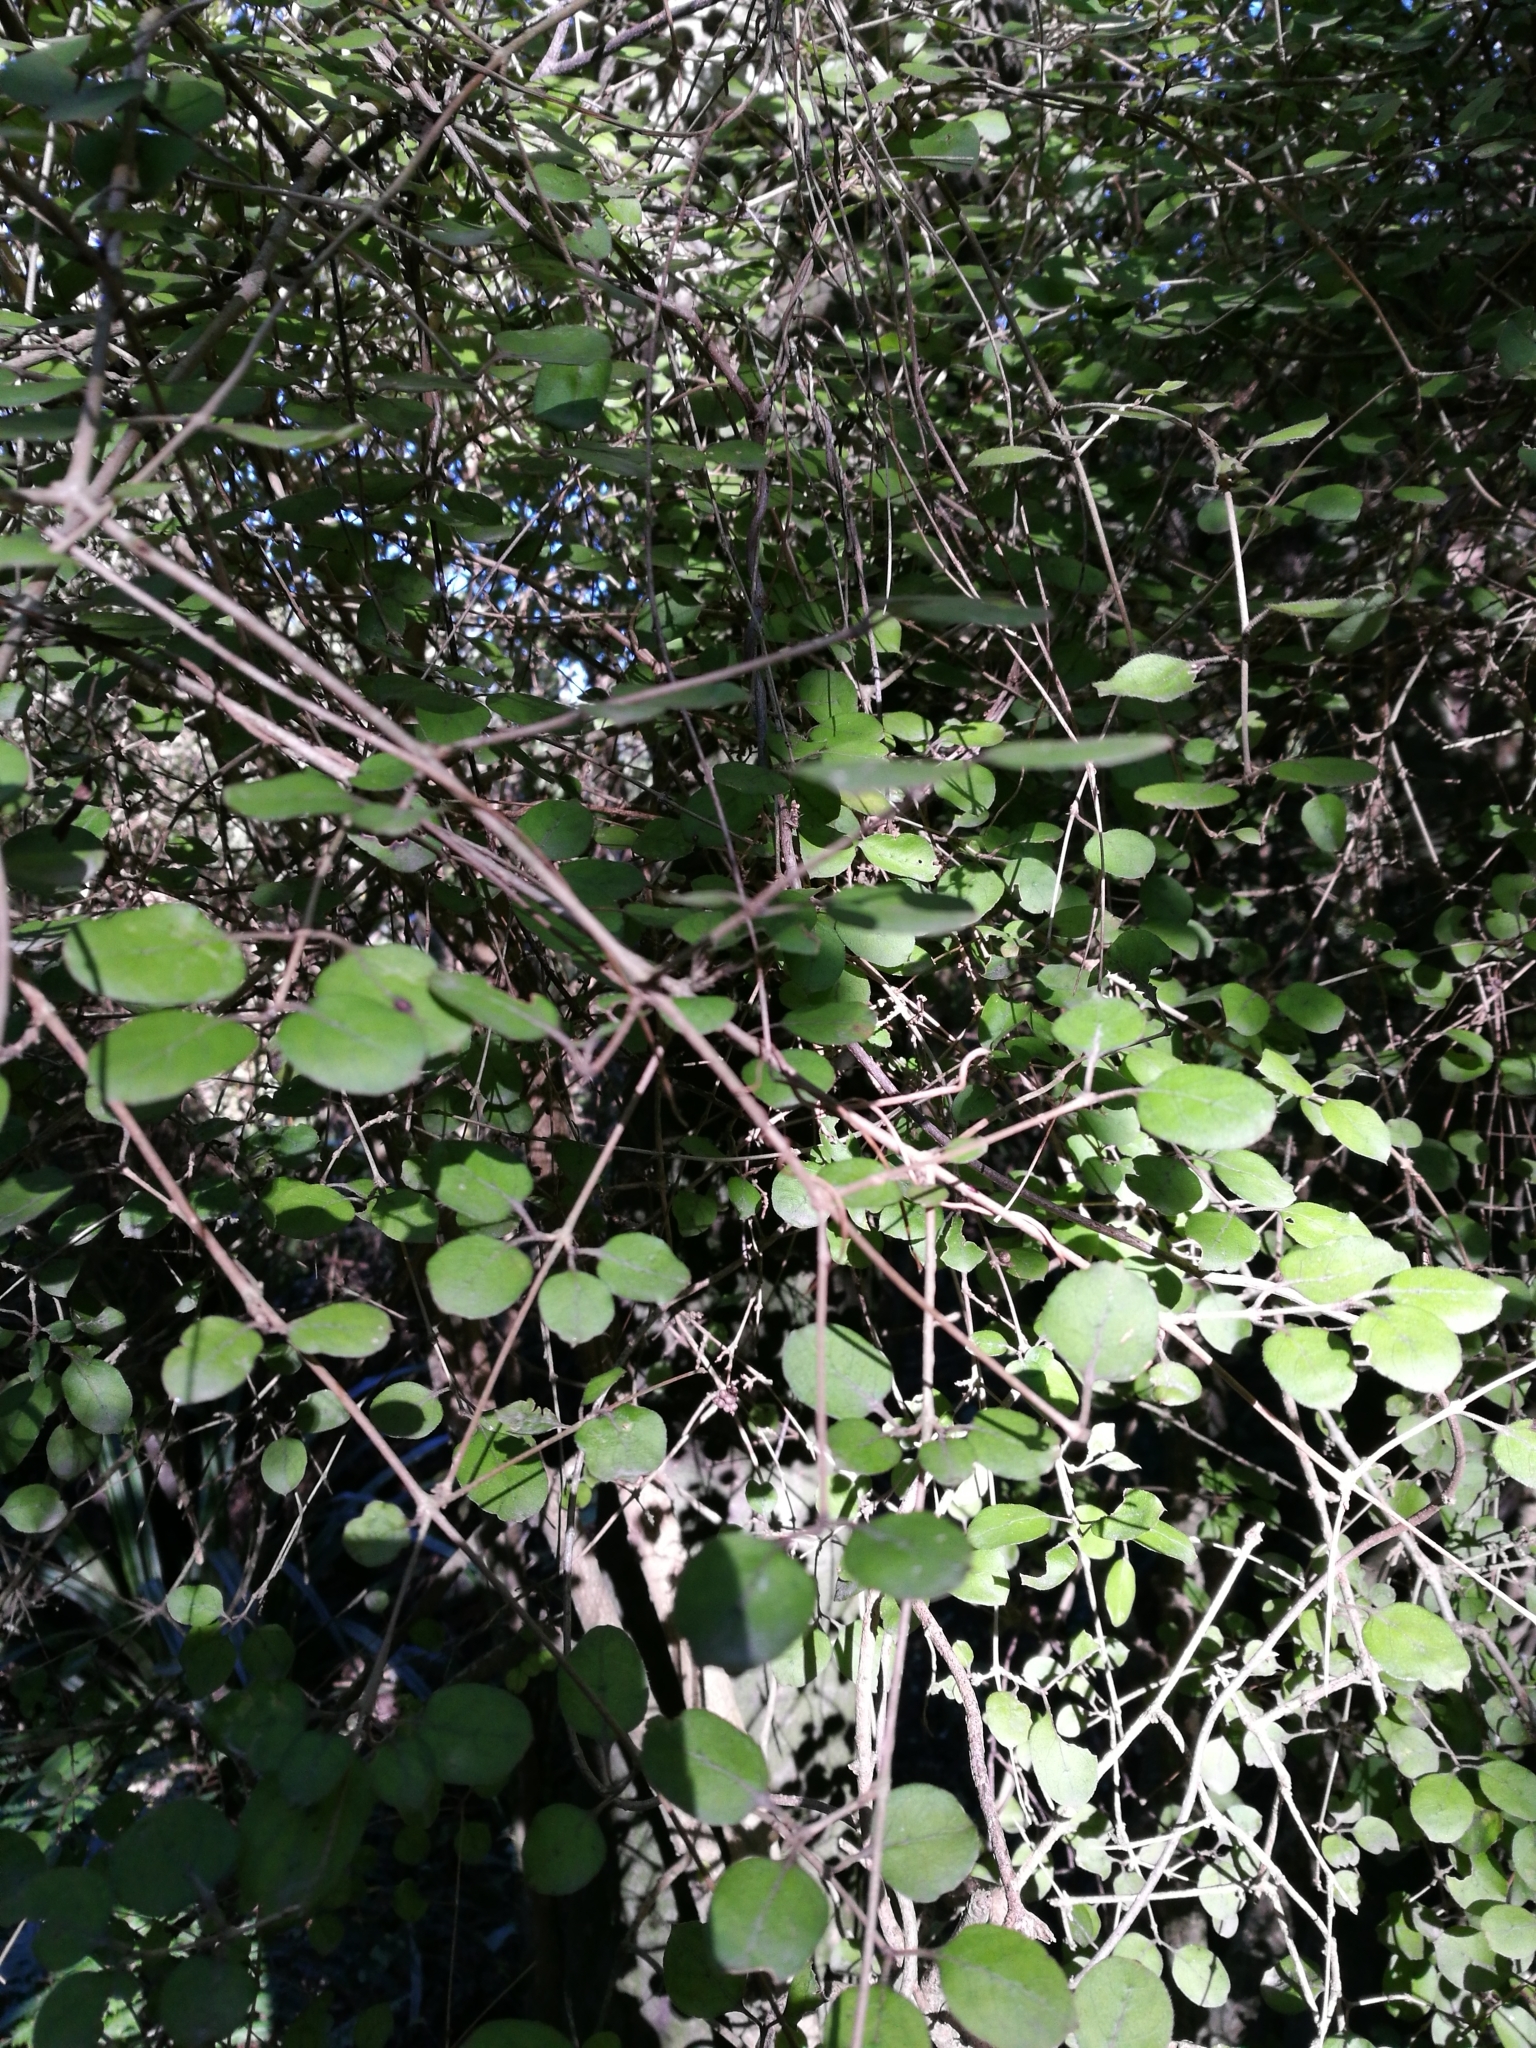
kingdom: Plantae
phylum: Tracheophyta
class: Magnoliopsida
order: Gentianales
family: Rubiaceae
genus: Coprosma
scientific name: Coprosma rotundifolia
